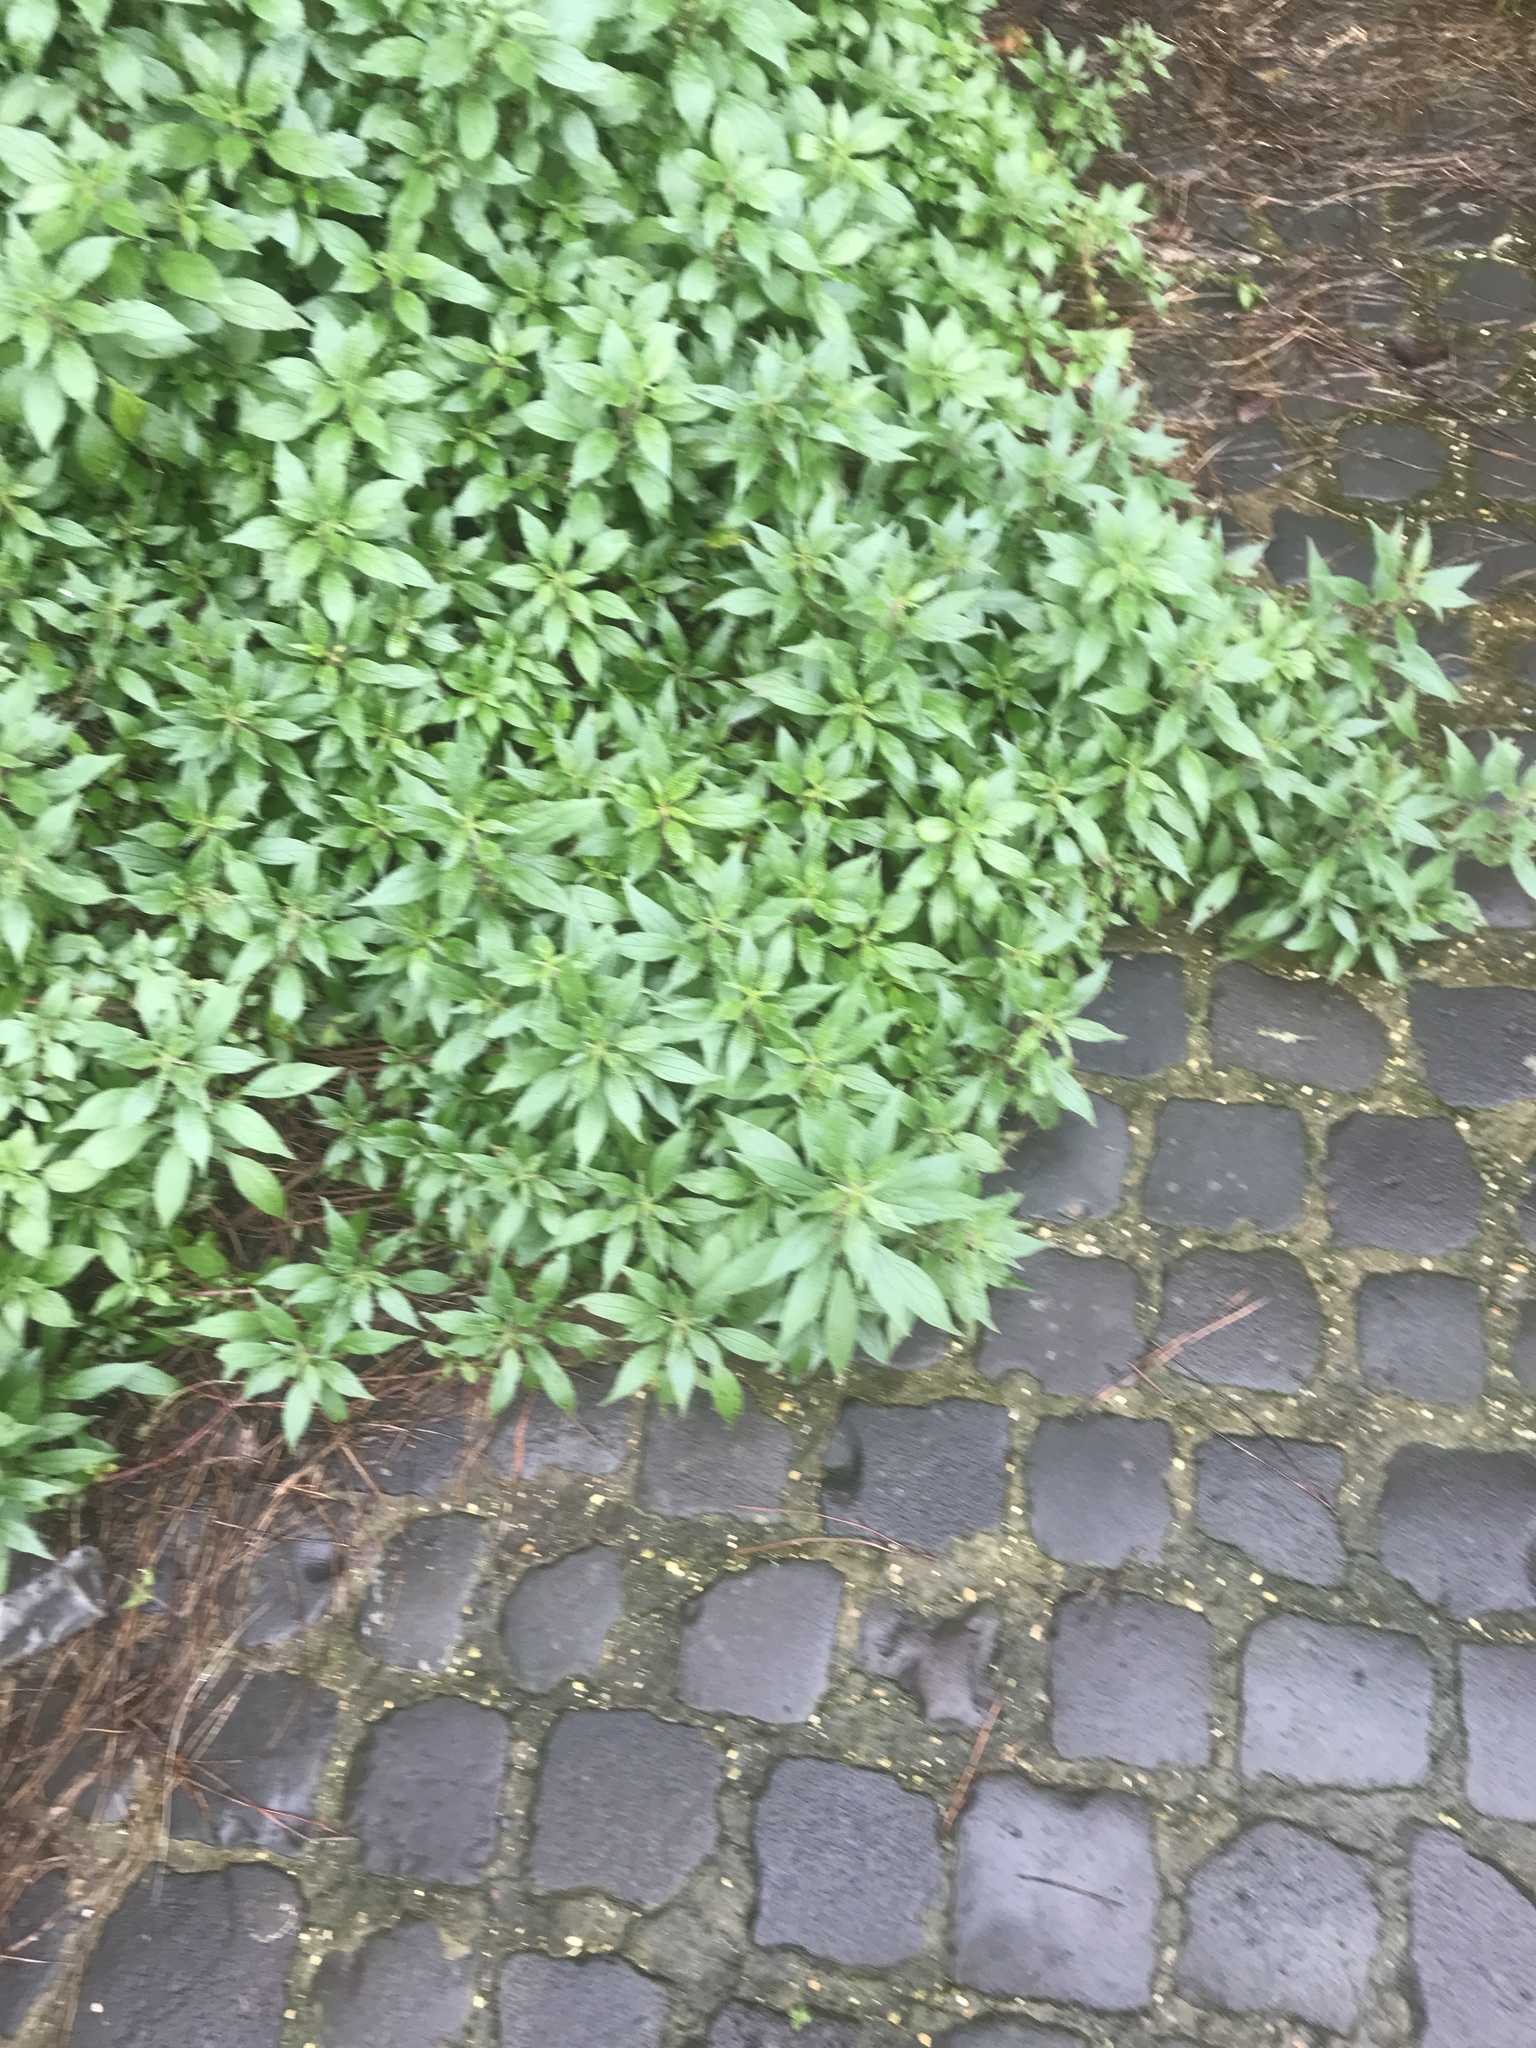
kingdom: Plantae
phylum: Tracheophyta
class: Magnoliopsida
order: Rosales
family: Urticaceae
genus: Parietaria
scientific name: Parietaria officinalis
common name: Eastern pellitory-of-the-wall
